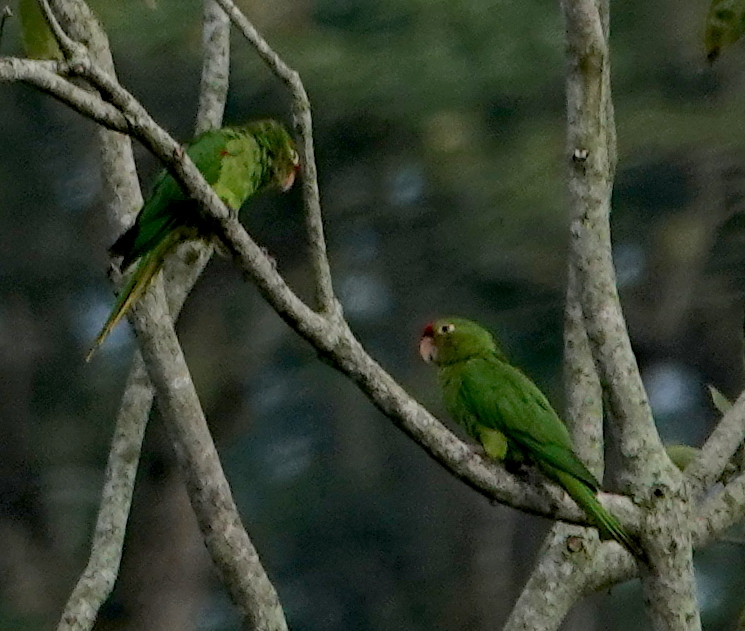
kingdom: Animalia
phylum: Chordata
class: Aves
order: Psittaciformes
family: Psittacidae
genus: Aratinga
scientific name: Aratinga finschi
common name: Crimson-fronted parakeet
